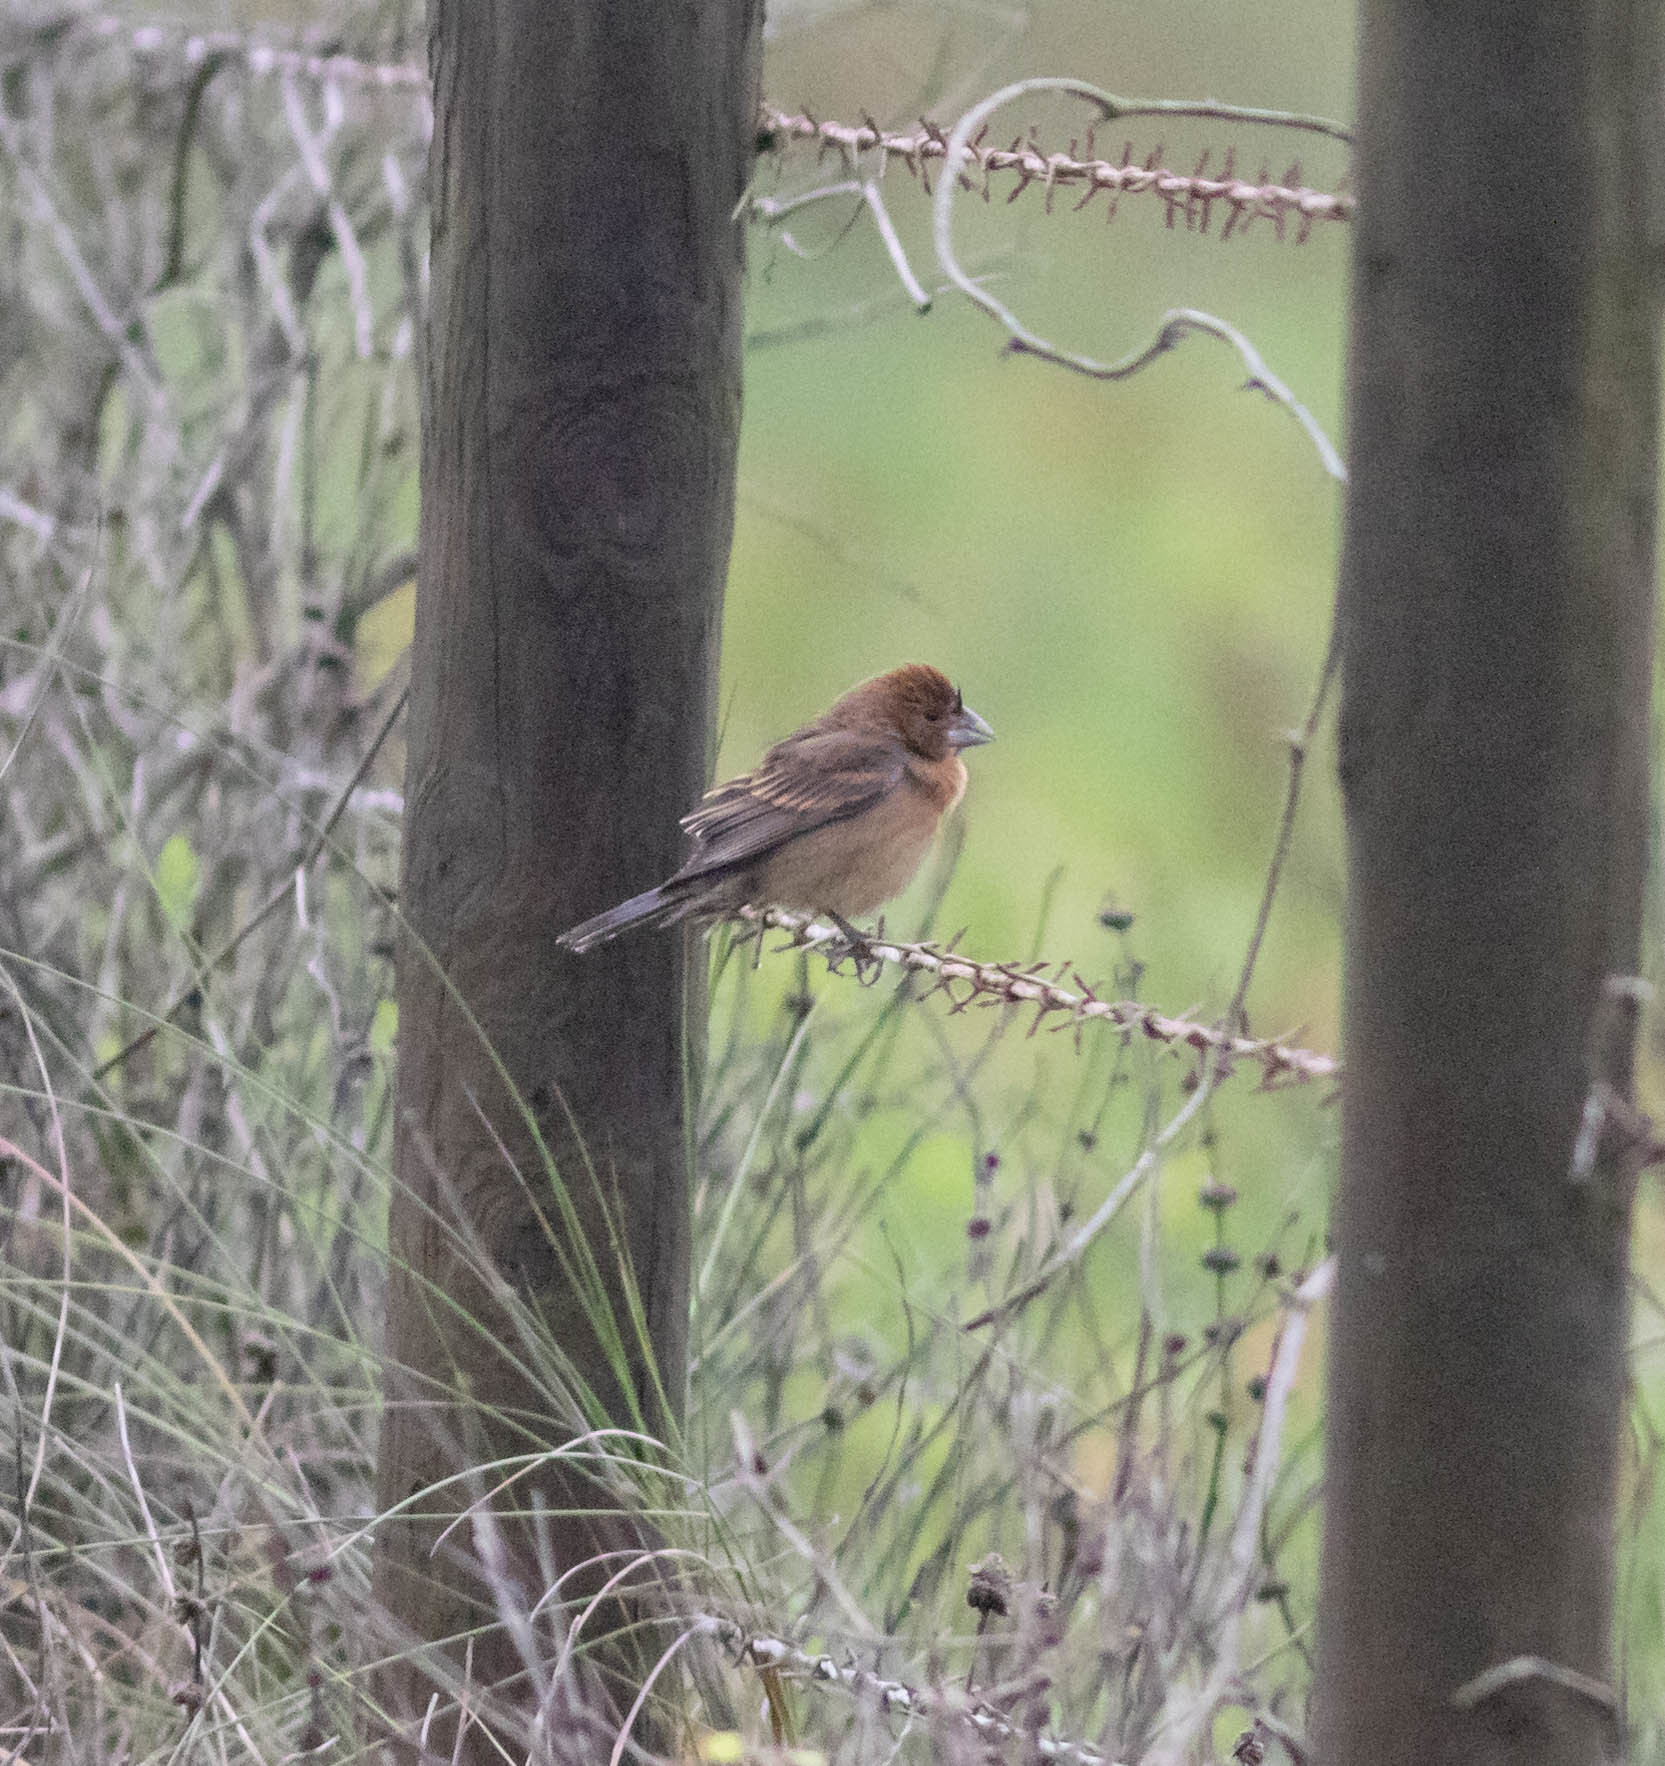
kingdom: Animalia
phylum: Chordata
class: Aves
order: Passeriformes
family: Cardinalidae
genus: Passerina
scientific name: Passerina caerulea
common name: Blue grosbeak
